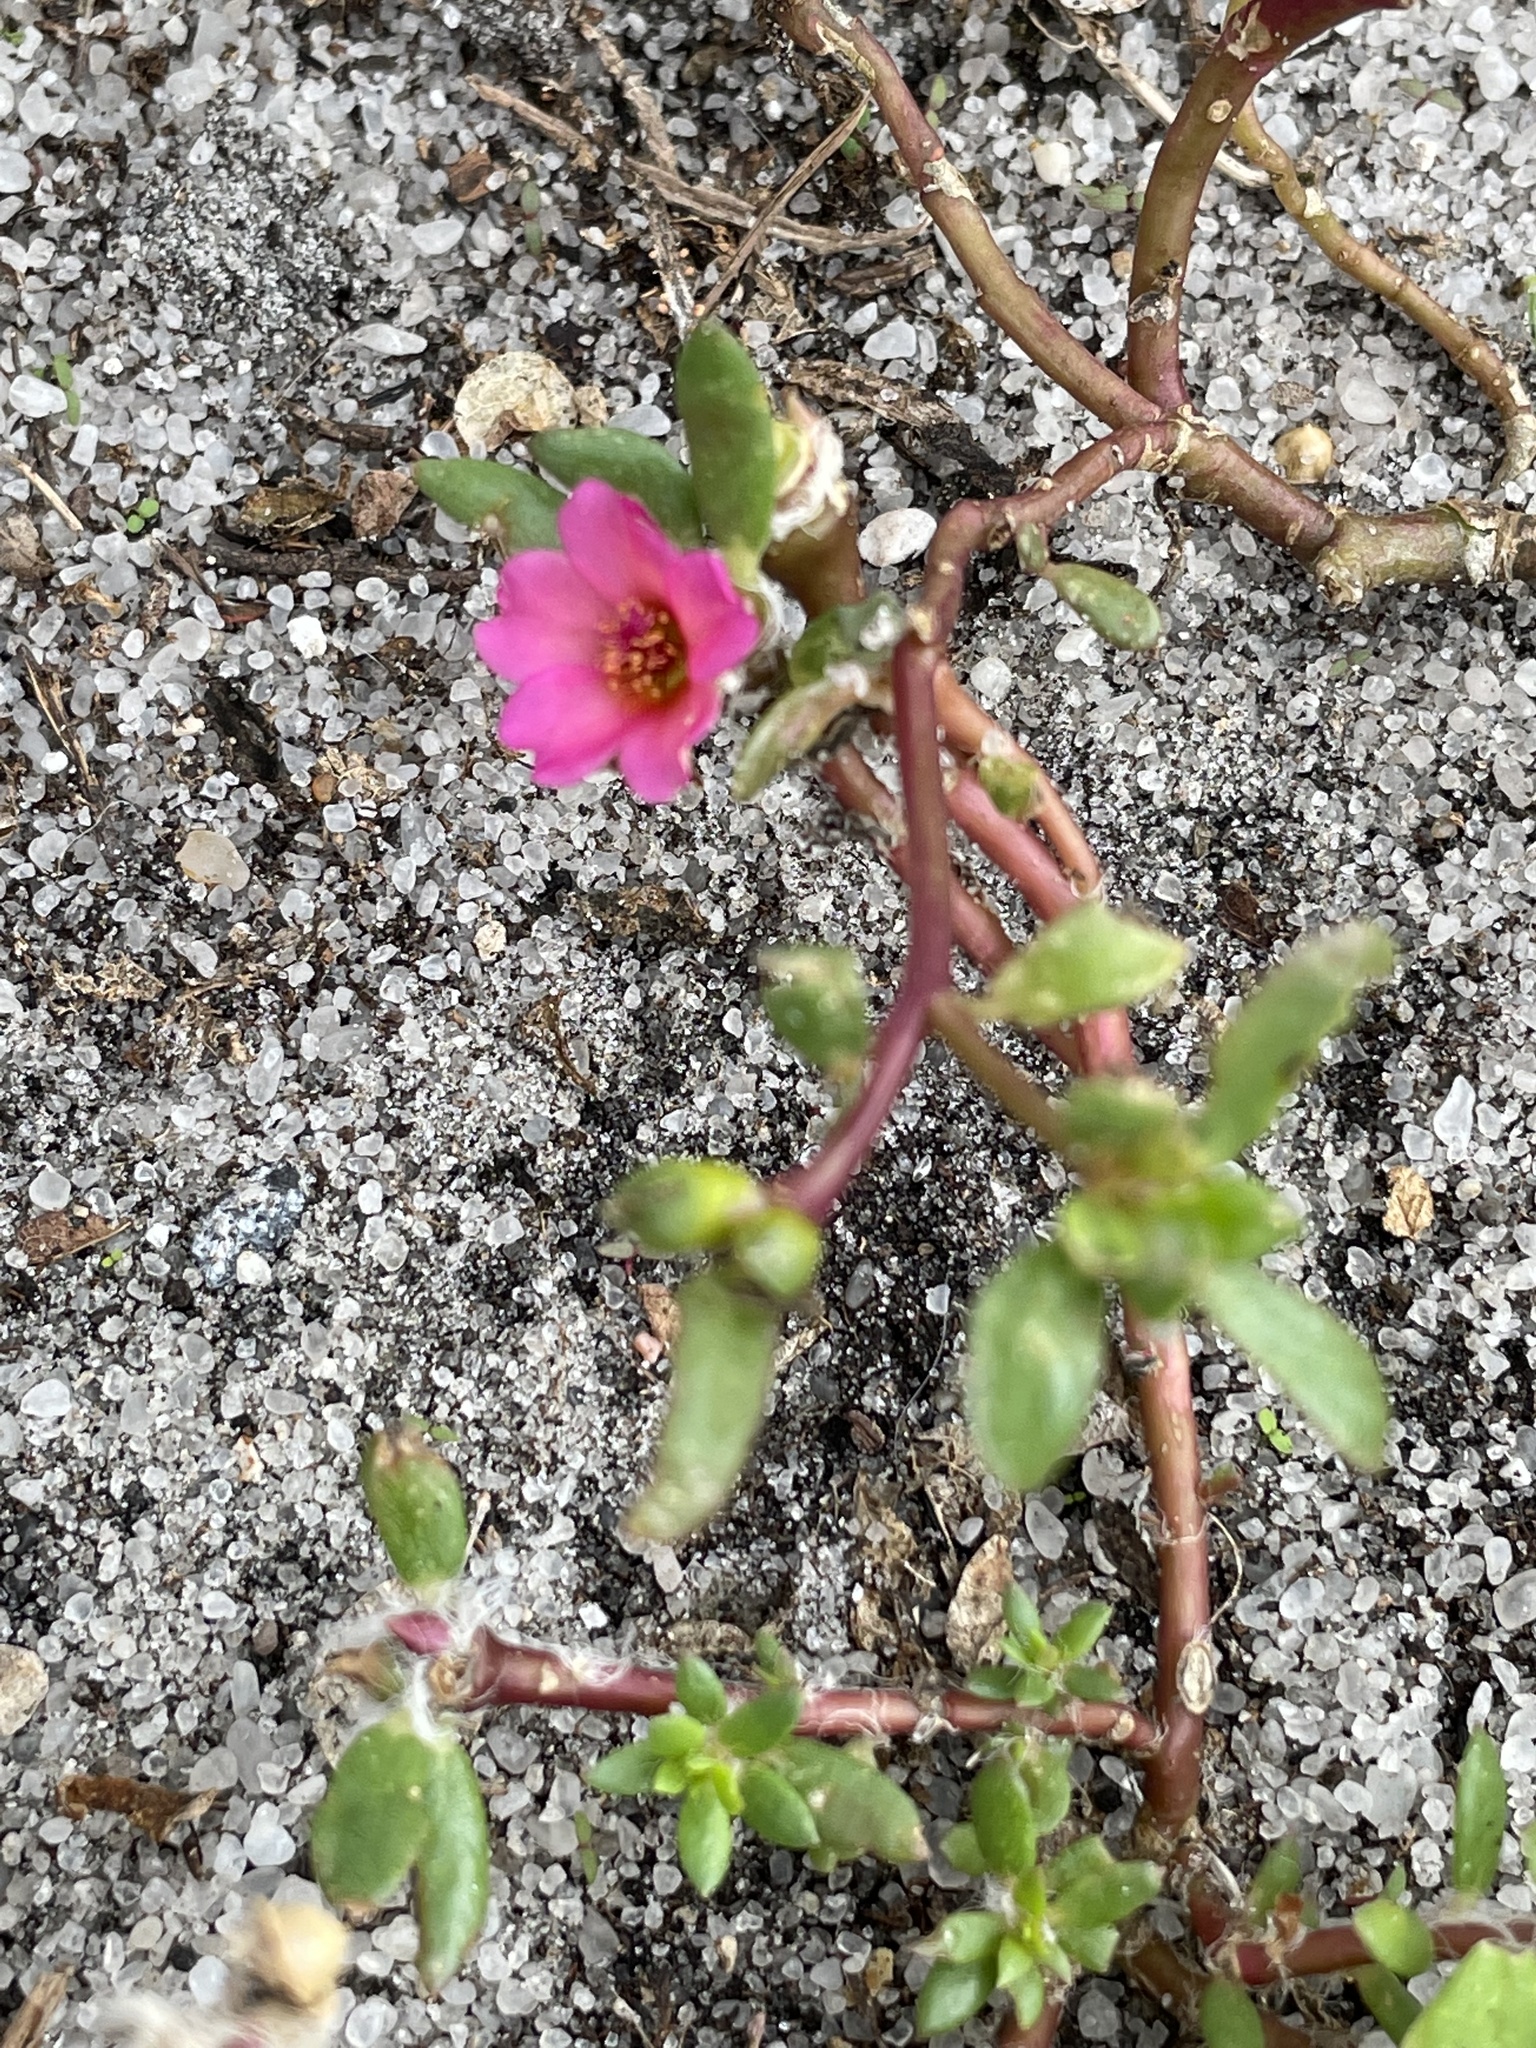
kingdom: Plantae
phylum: Tracheophyta
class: Magnoliopsida
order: Caryophyllales
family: Portulacaceae
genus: Portulaca
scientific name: Portulaca amilis
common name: Paraguayan purslane
